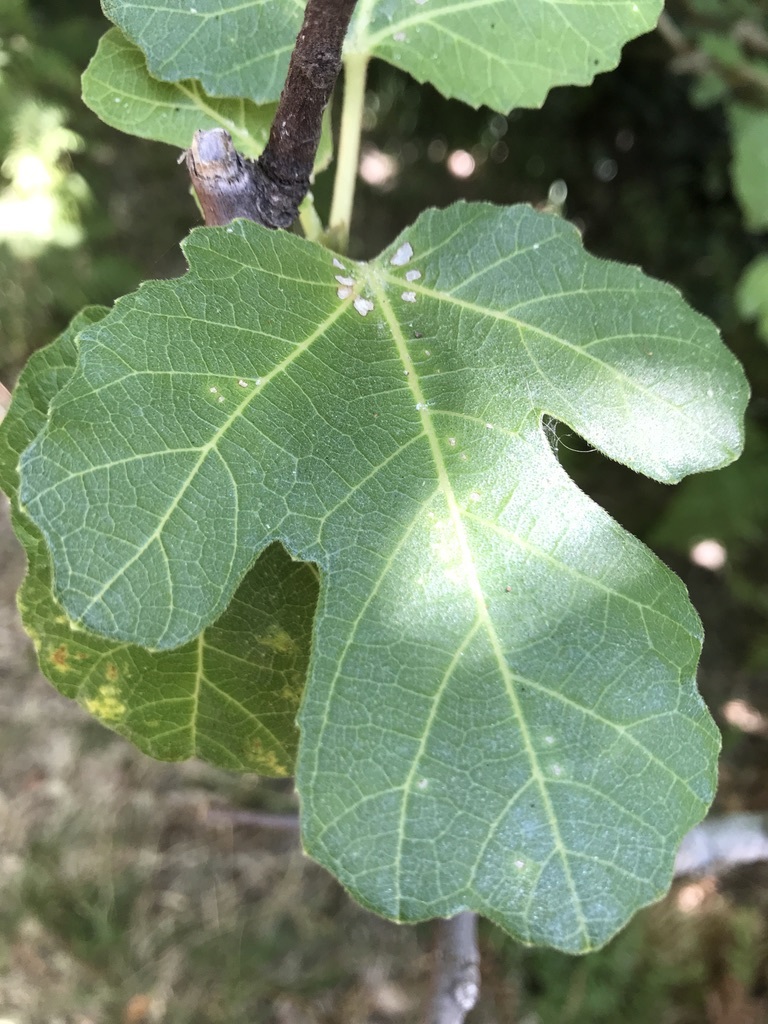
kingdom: Plantae
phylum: Tracheophyta
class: Magnoliopsida
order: Rosales
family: Moraceae
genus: Ficus
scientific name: Ficus carica
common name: Fig
